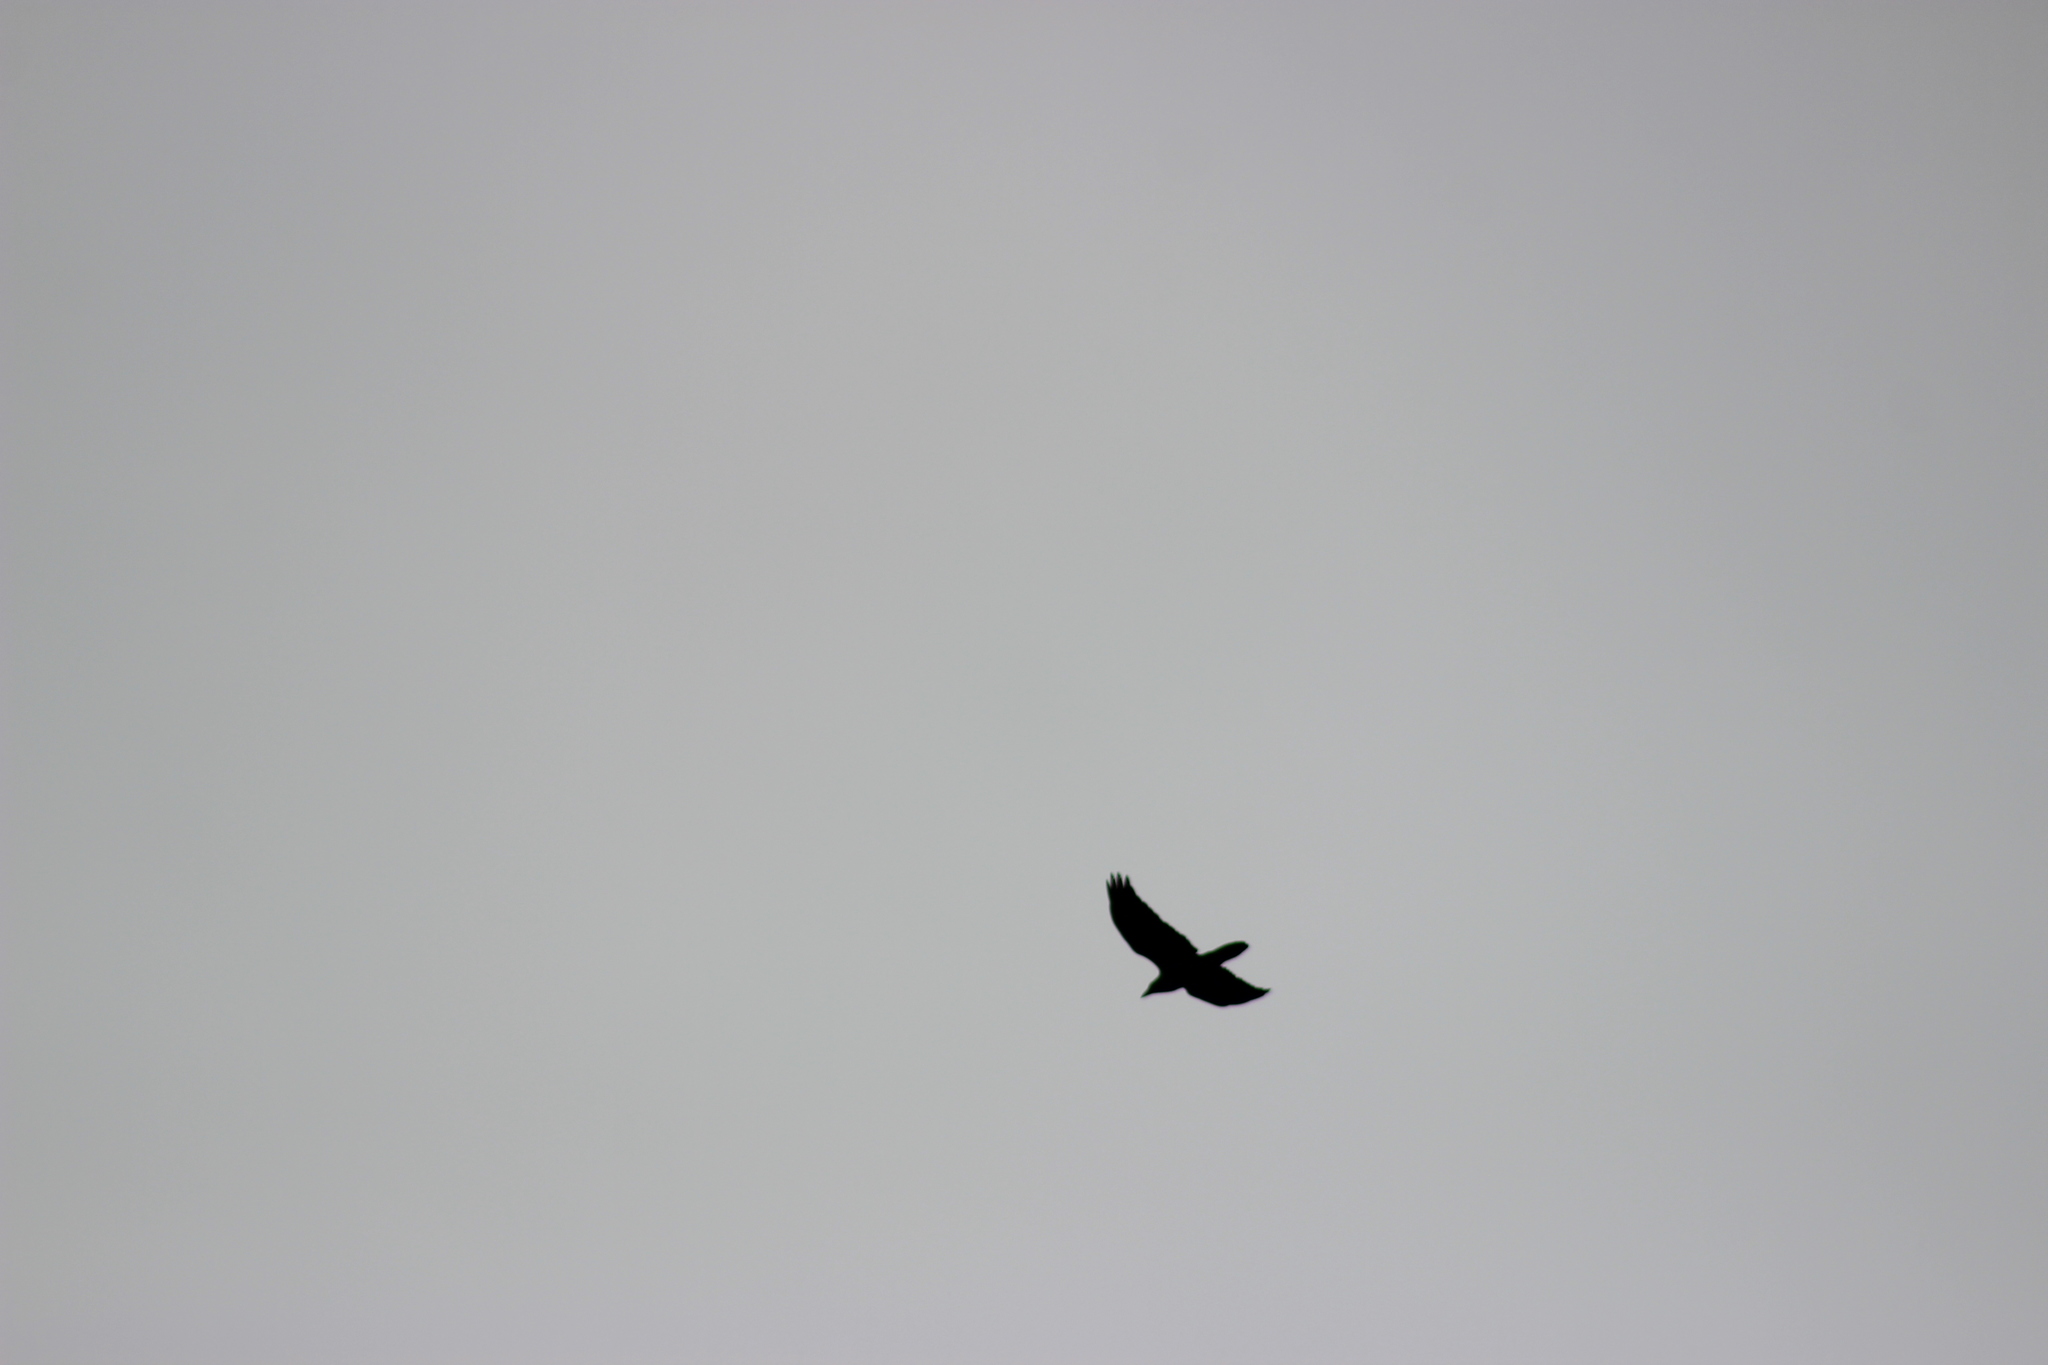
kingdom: Animalia
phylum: Chordata
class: Aves
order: Passeriformes
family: Corvidae
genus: Corvus
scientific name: Corvus corax
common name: Common raven
